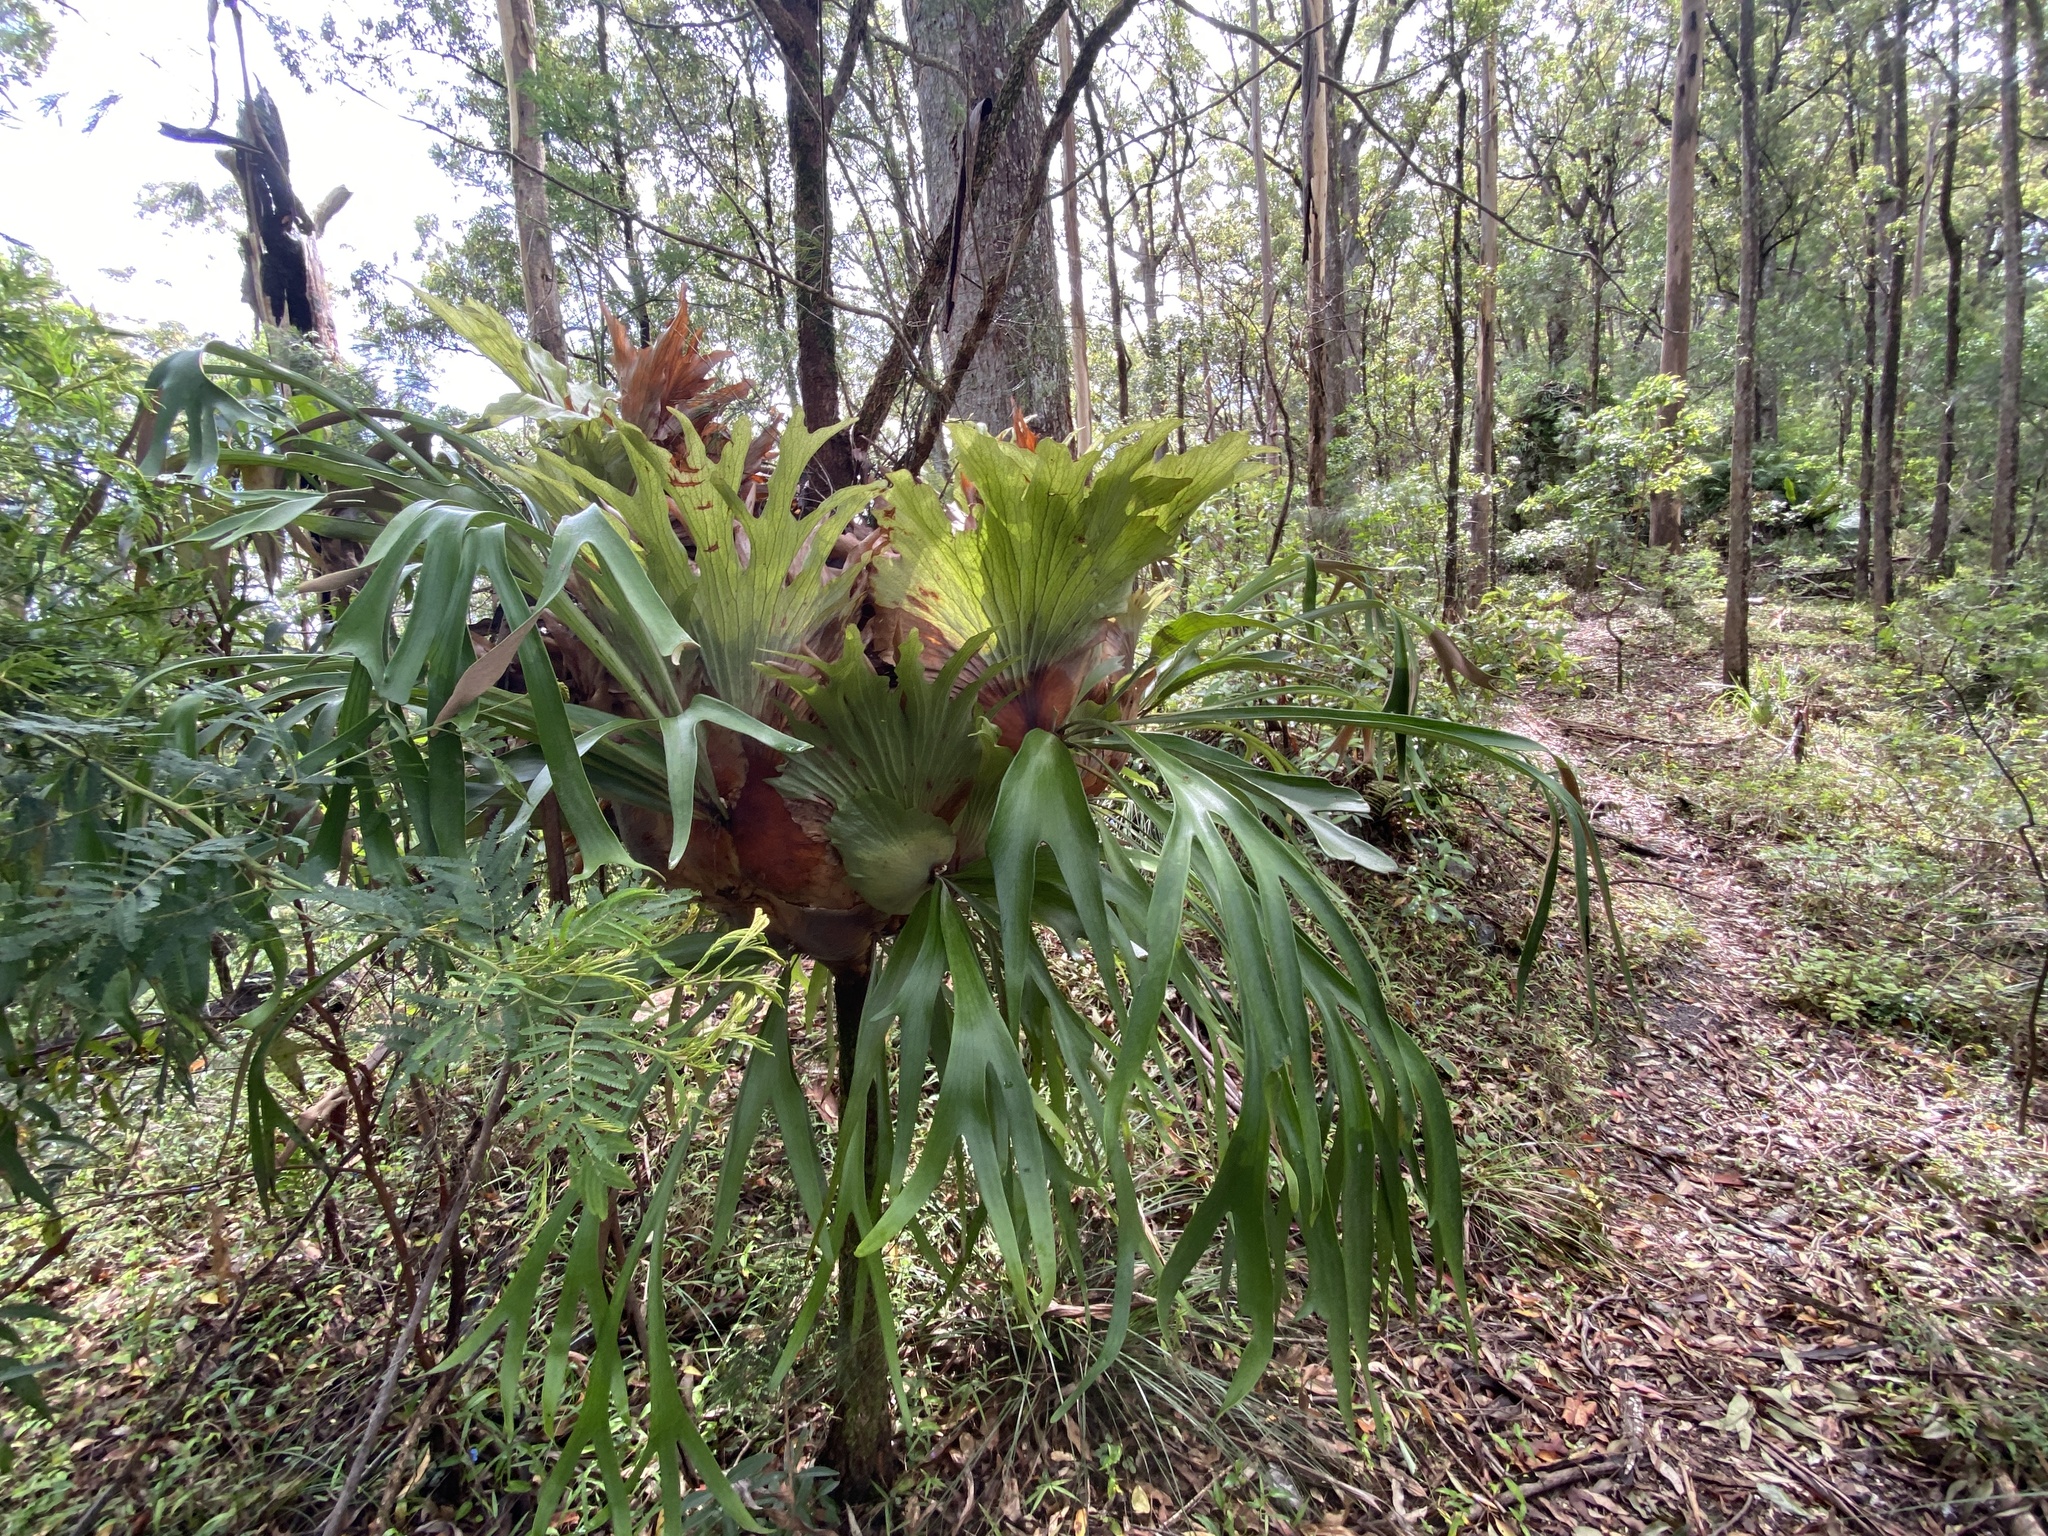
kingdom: Plantae
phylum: Tracheophyta
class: Polypodiopsida
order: Polypodiales
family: Polypodiaceae
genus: Platycerium
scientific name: Platycerium bifurcatum
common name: Elkhorn fern
